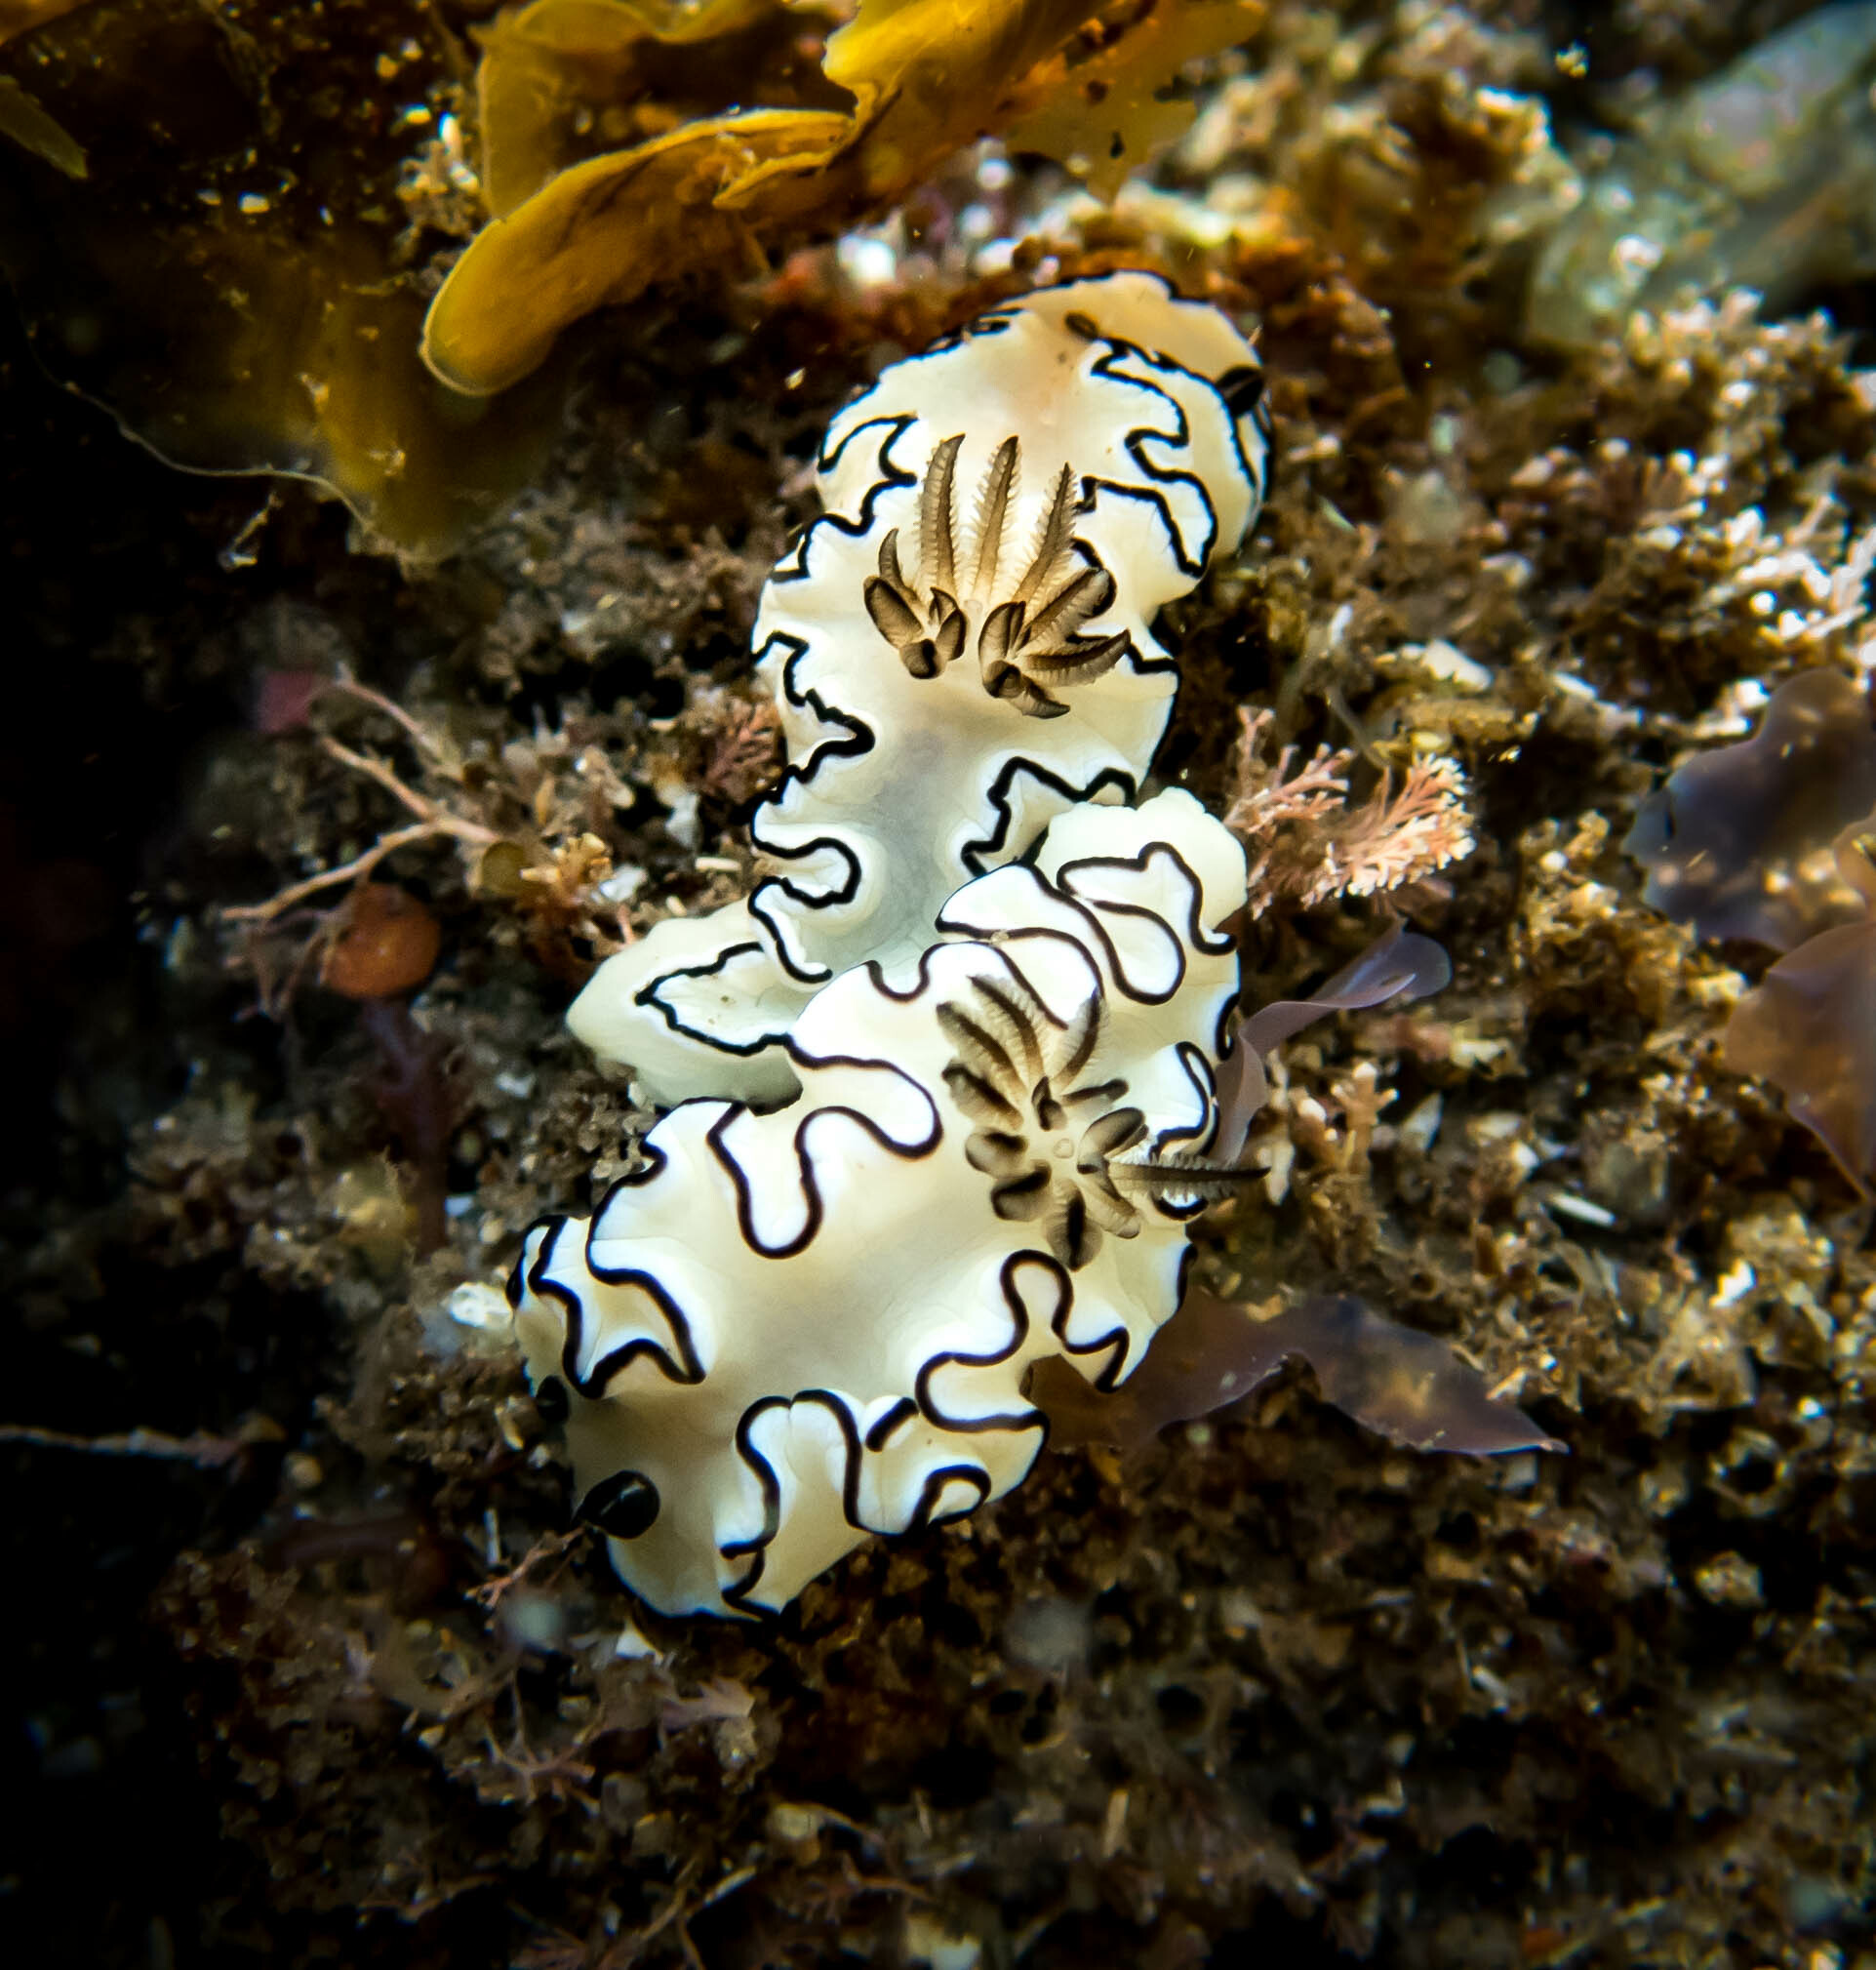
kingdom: Animalia
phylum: Mollusca
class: Gastropoda
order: Nudibranchia
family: Chromodorididae
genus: Doriprismatica
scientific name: Doriprismatica atromarginata
